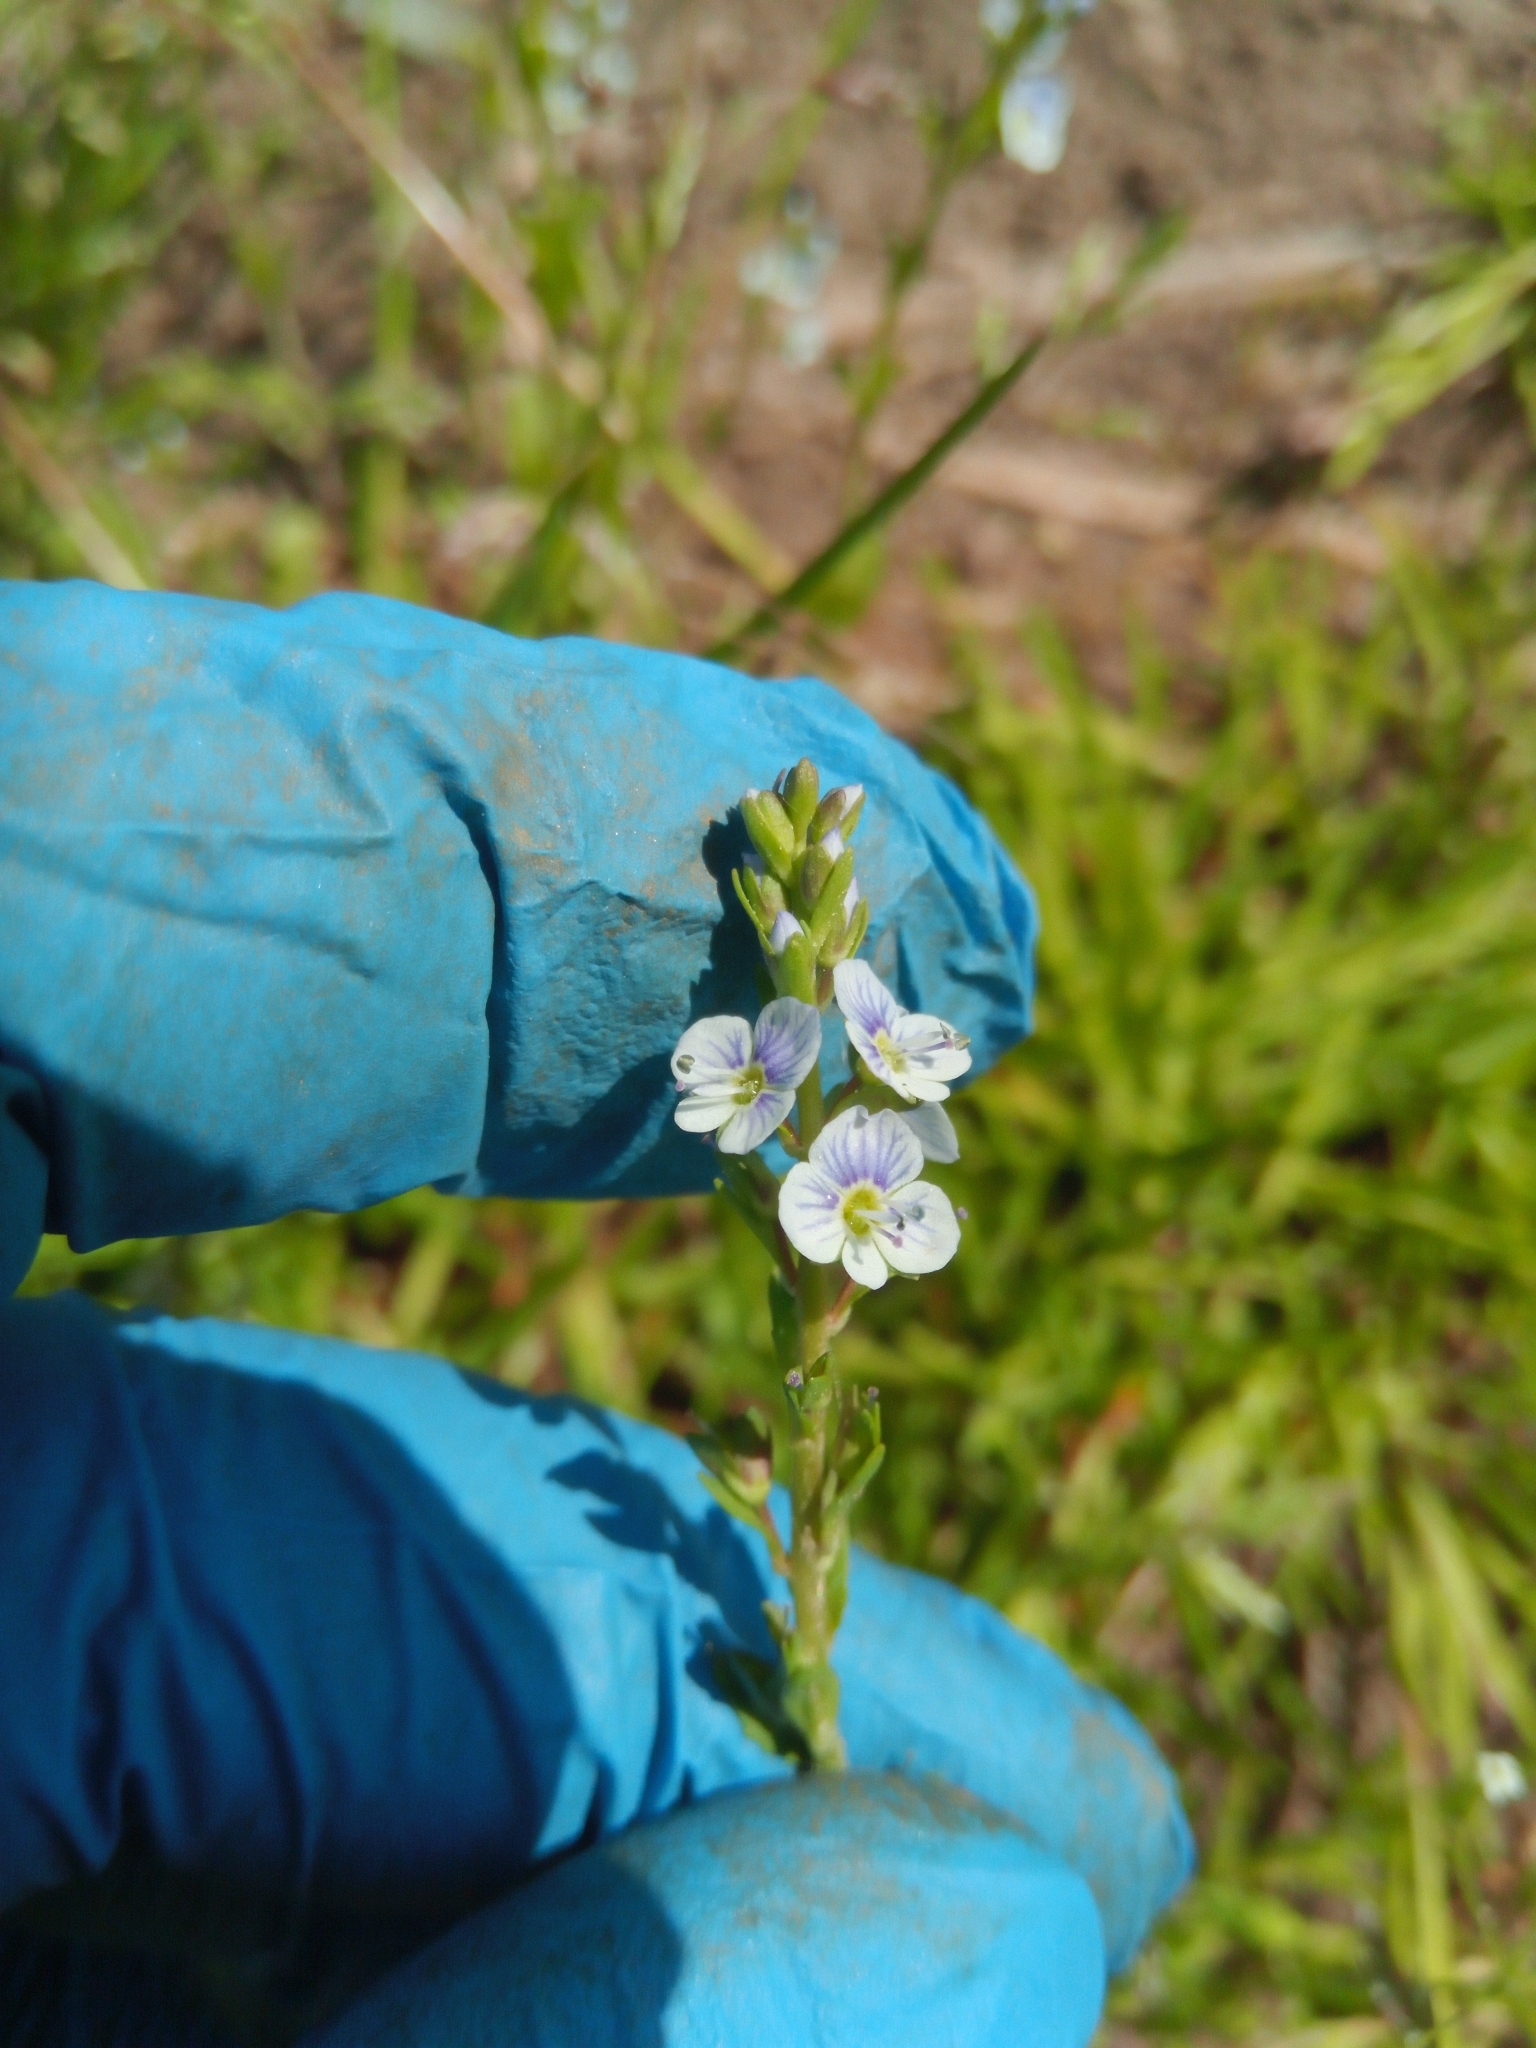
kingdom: Plantae
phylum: Tracheophyta
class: Magnoliopsida
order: Lamiales
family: Plantaginaceae
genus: Veronica
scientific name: Veronica serpyllifolia
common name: Thyme-leaved speedwell
